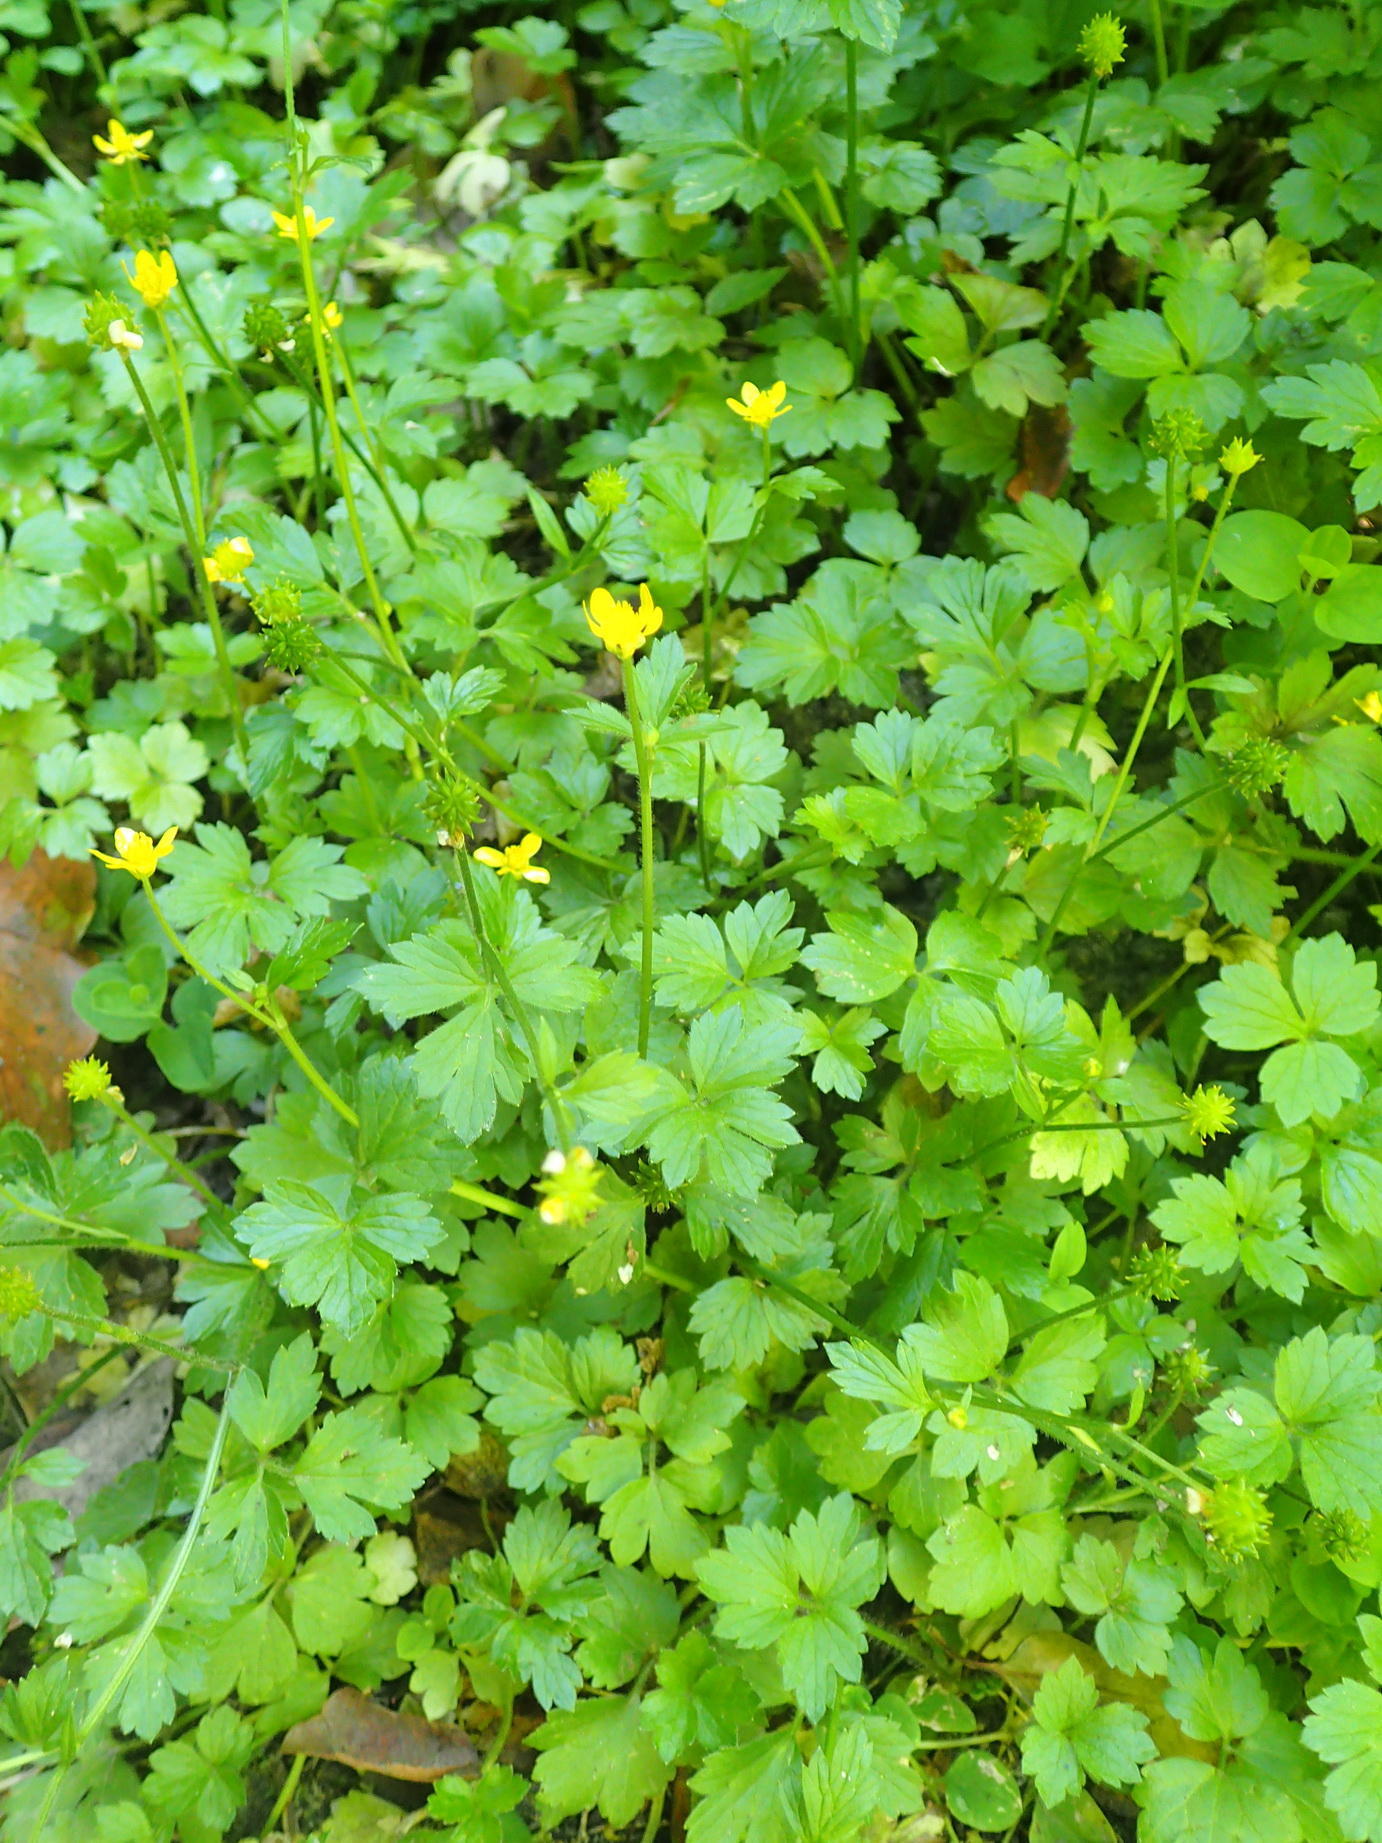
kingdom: Plantae
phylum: Tracheophyta
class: Magnoliopsida
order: Ranunculales
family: Ranunculaceae
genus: Ranunculus
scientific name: Ranunculus multifidus
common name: Wild buttercup
